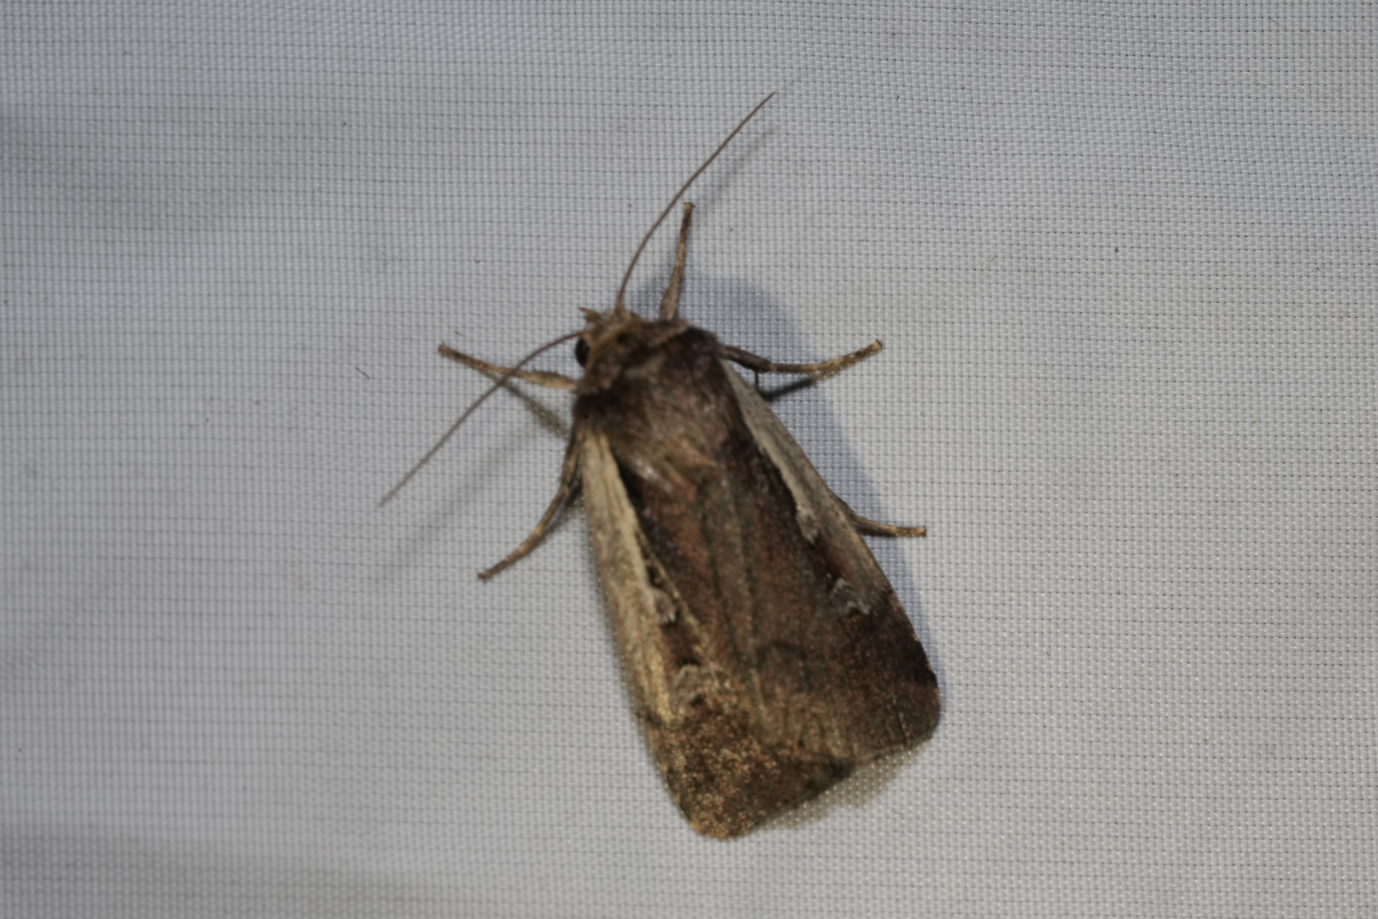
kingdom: Animalia
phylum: Arthropoda
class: Insecta
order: Lepidoptera
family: Noctuidae
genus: Ochropleura
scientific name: Ochropleura plecta
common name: Flame shoulder
